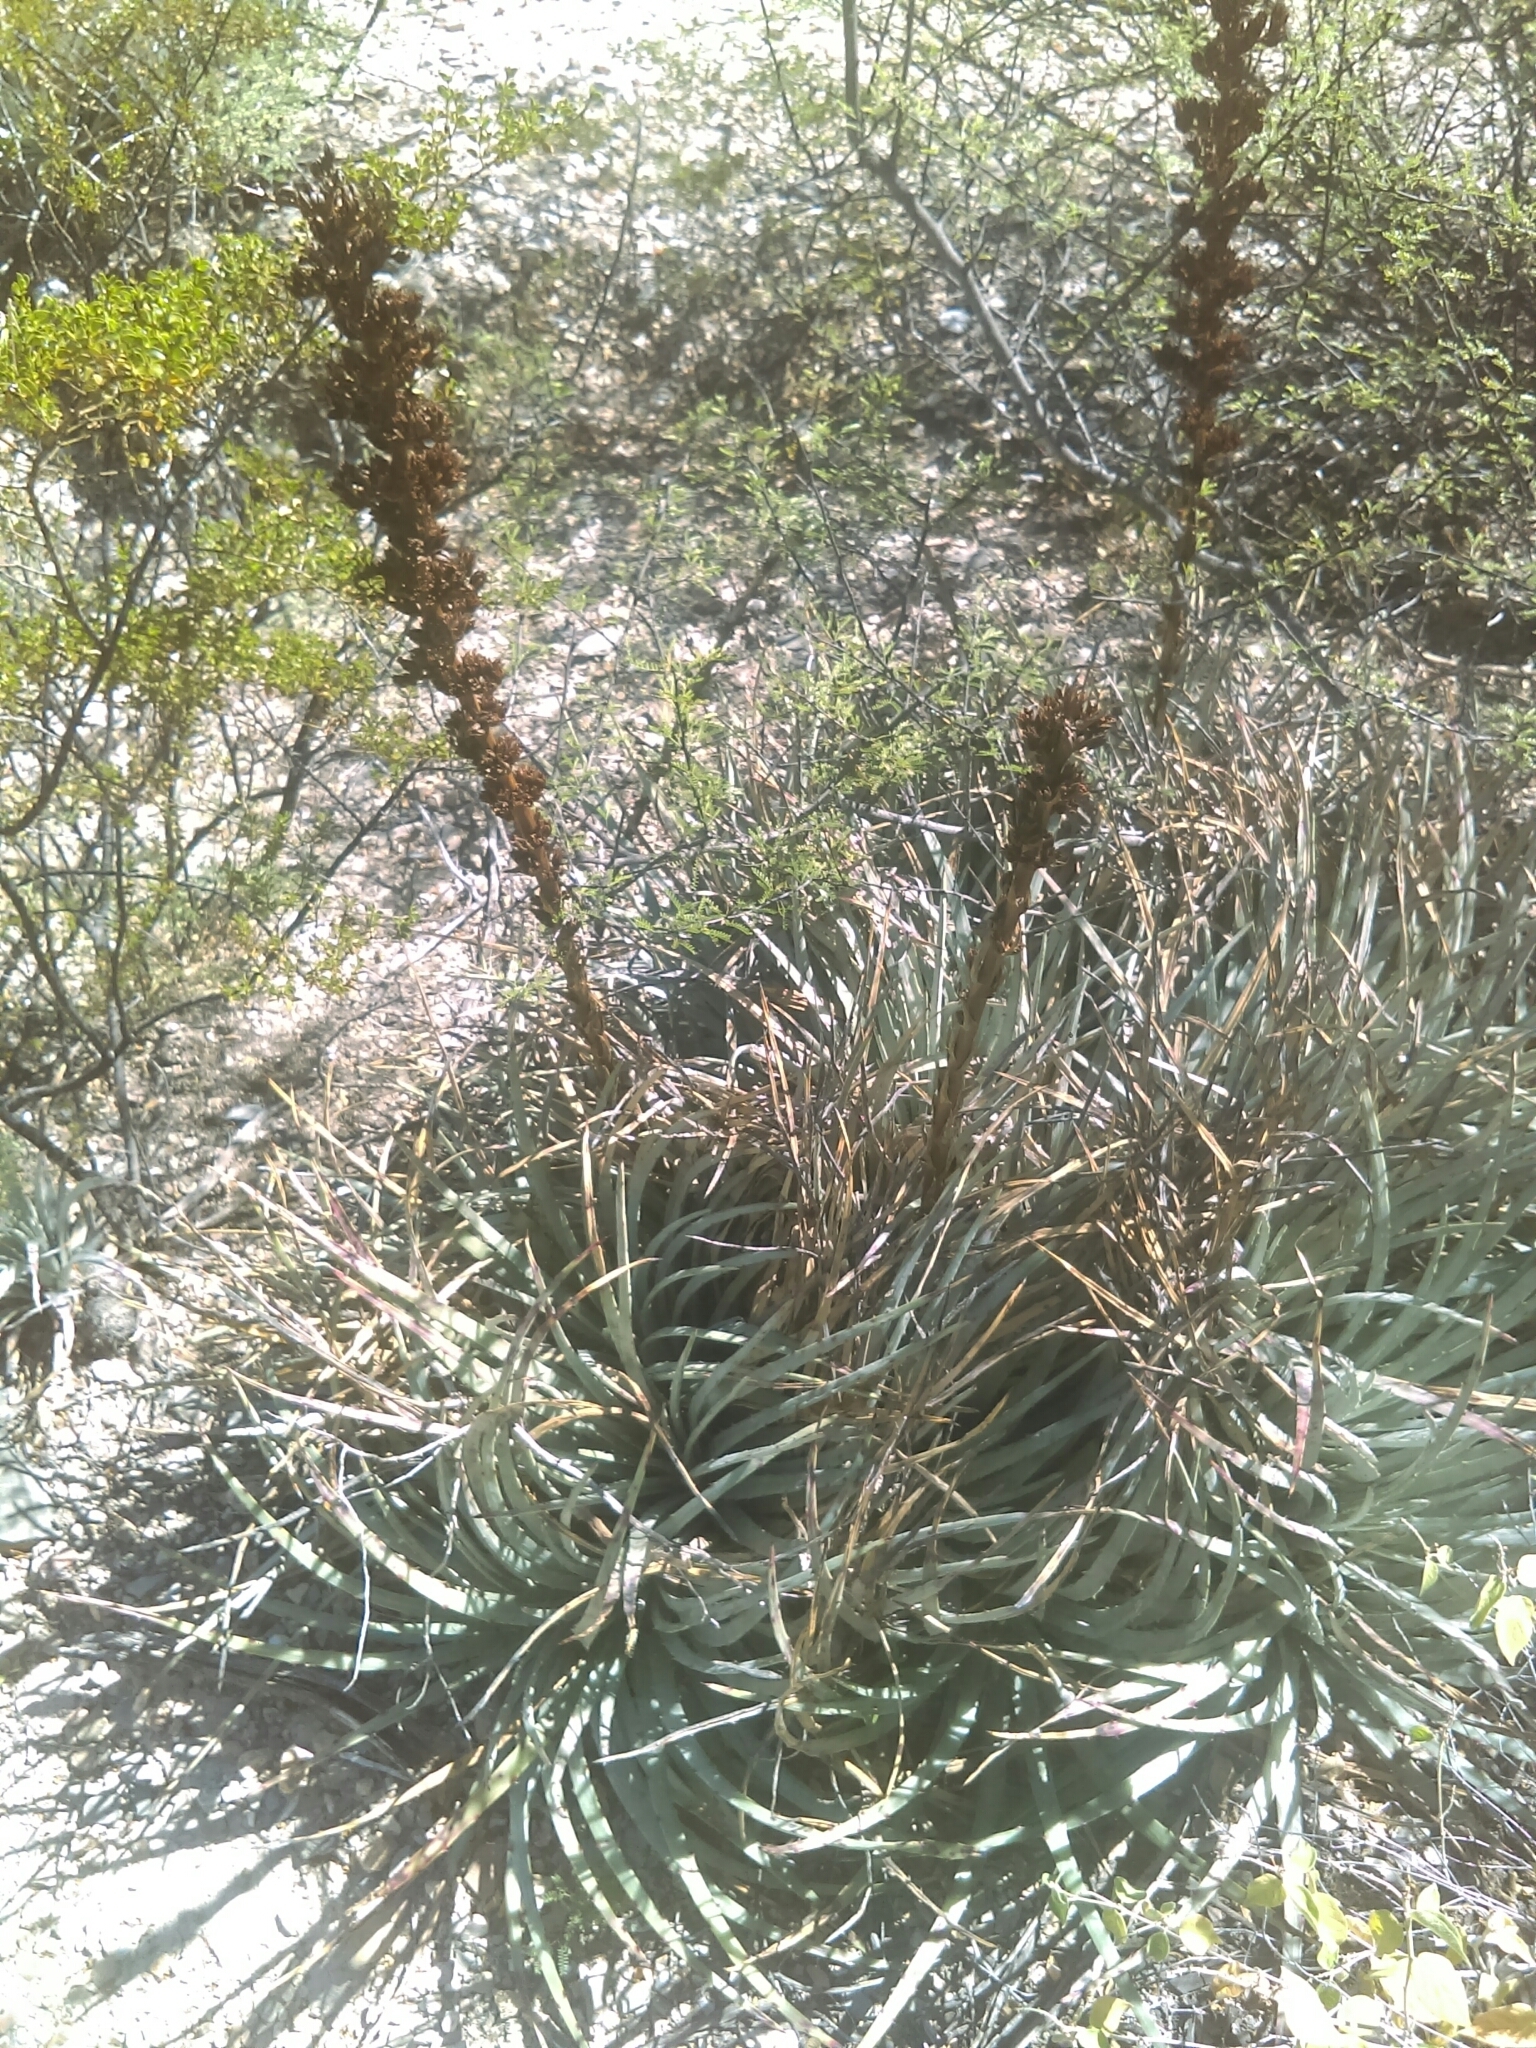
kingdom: Plantae
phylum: Tracheophyta
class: Liliopsida
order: Poales
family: Bromeliaceae
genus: Hechtia
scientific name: Hechtia podantha
